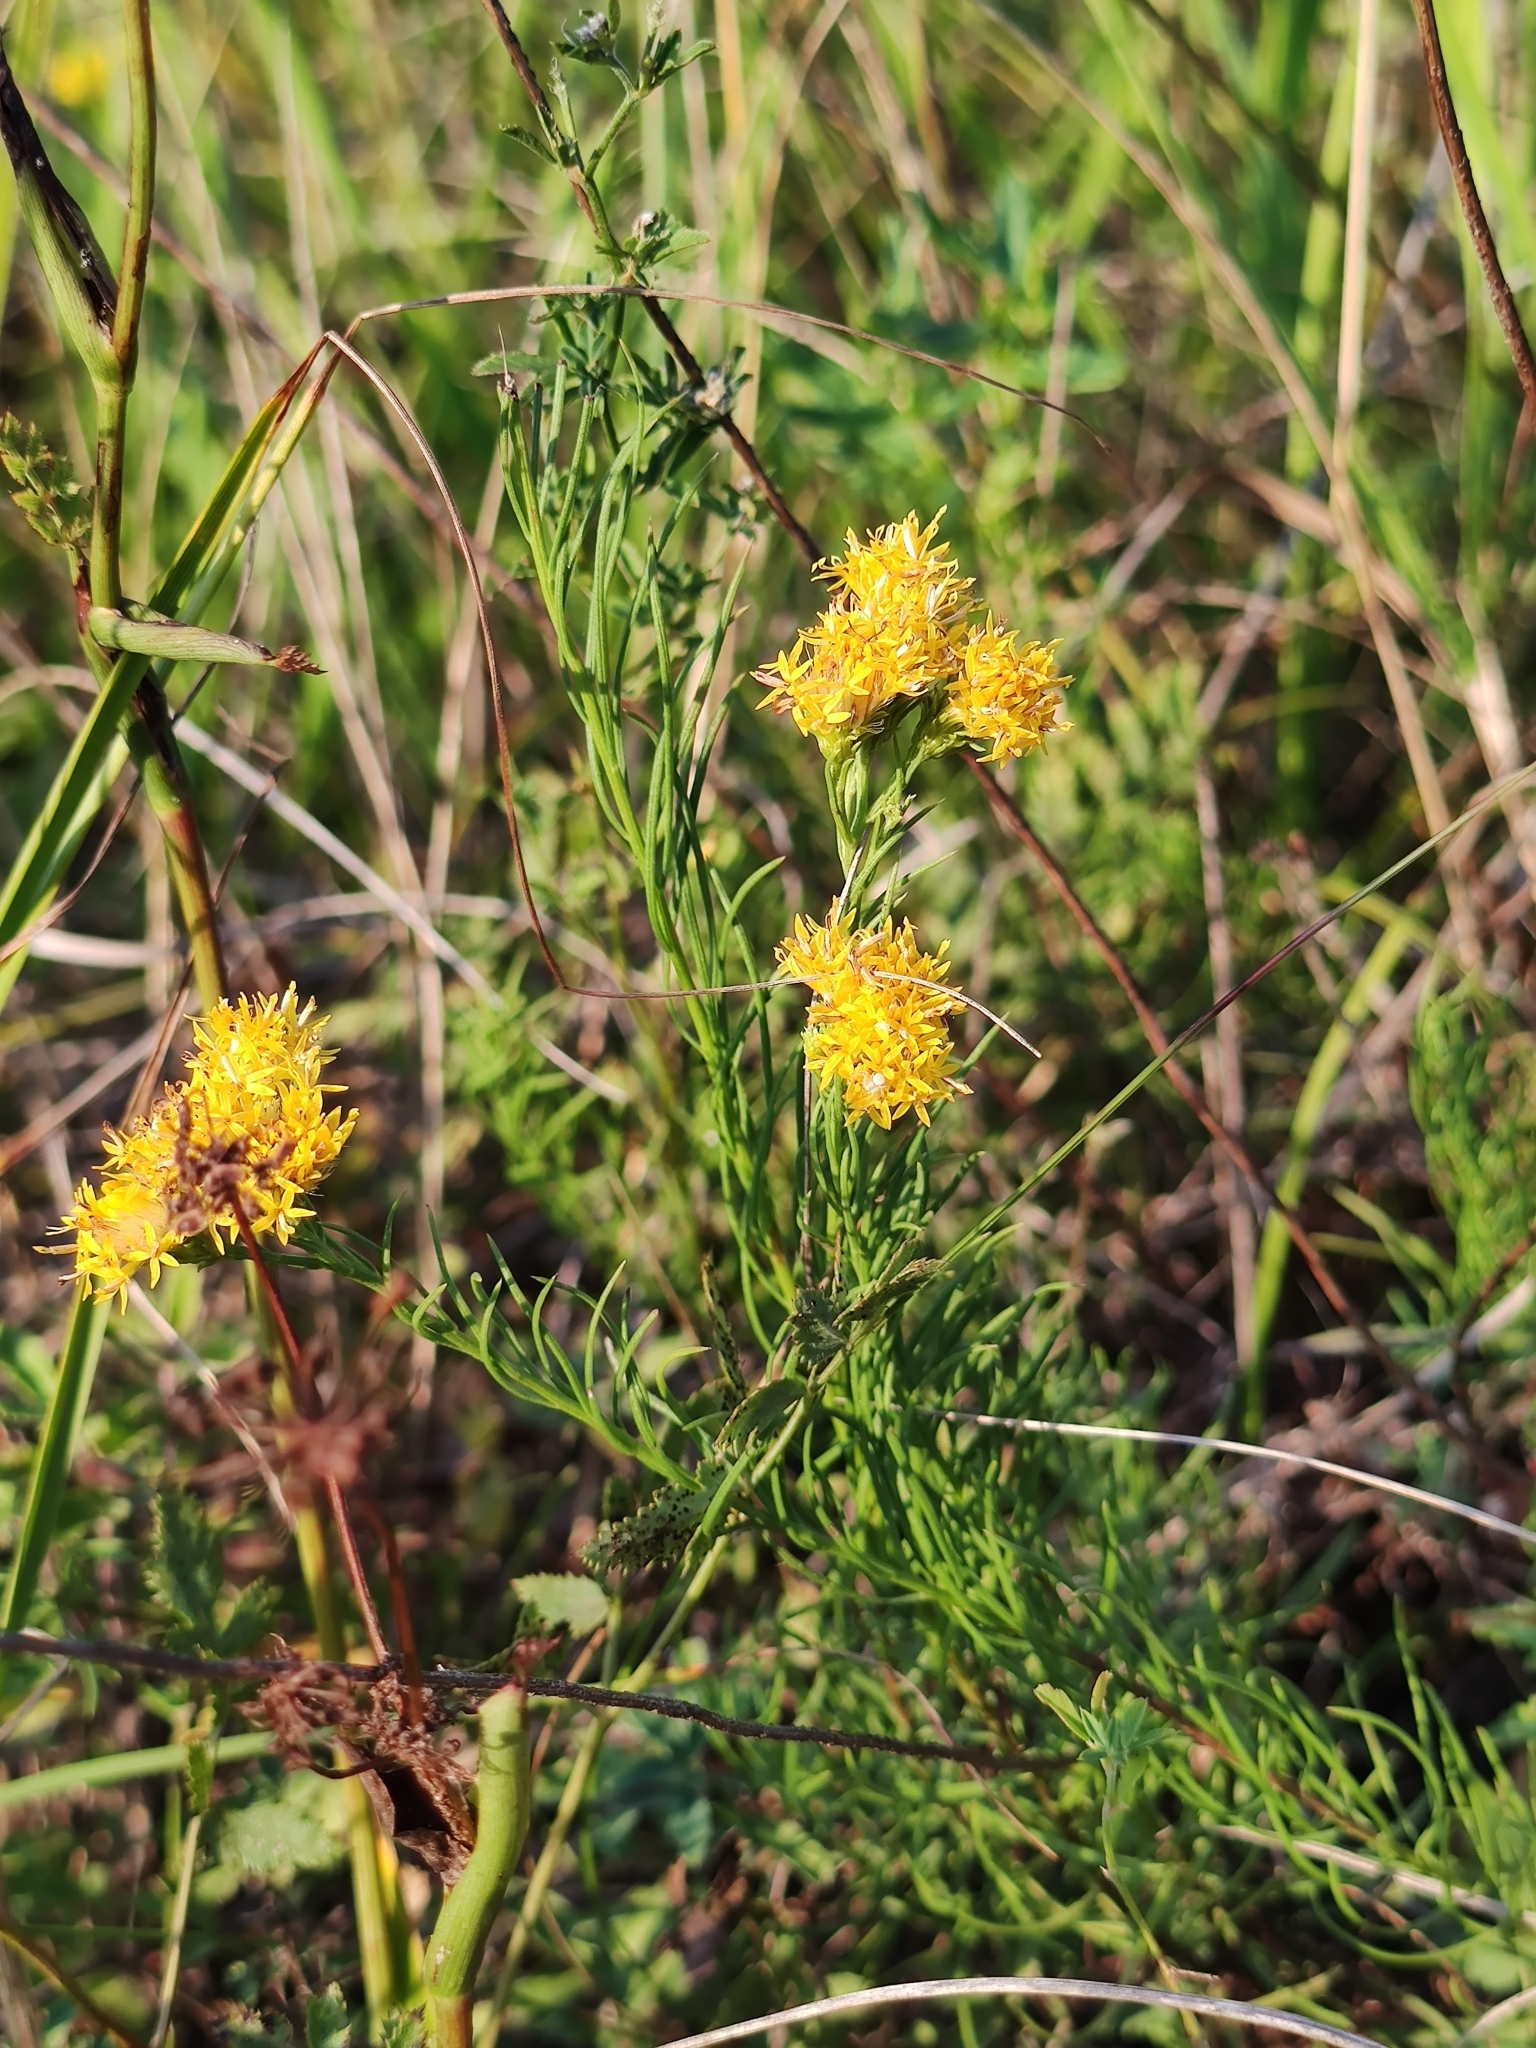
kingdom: Plantae
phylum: Tracheophyta
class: Magnoliopsida
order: Asterales
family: Asteraceae
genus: Galatella
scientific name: Galatella linosyris
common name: Goldilocks aster
